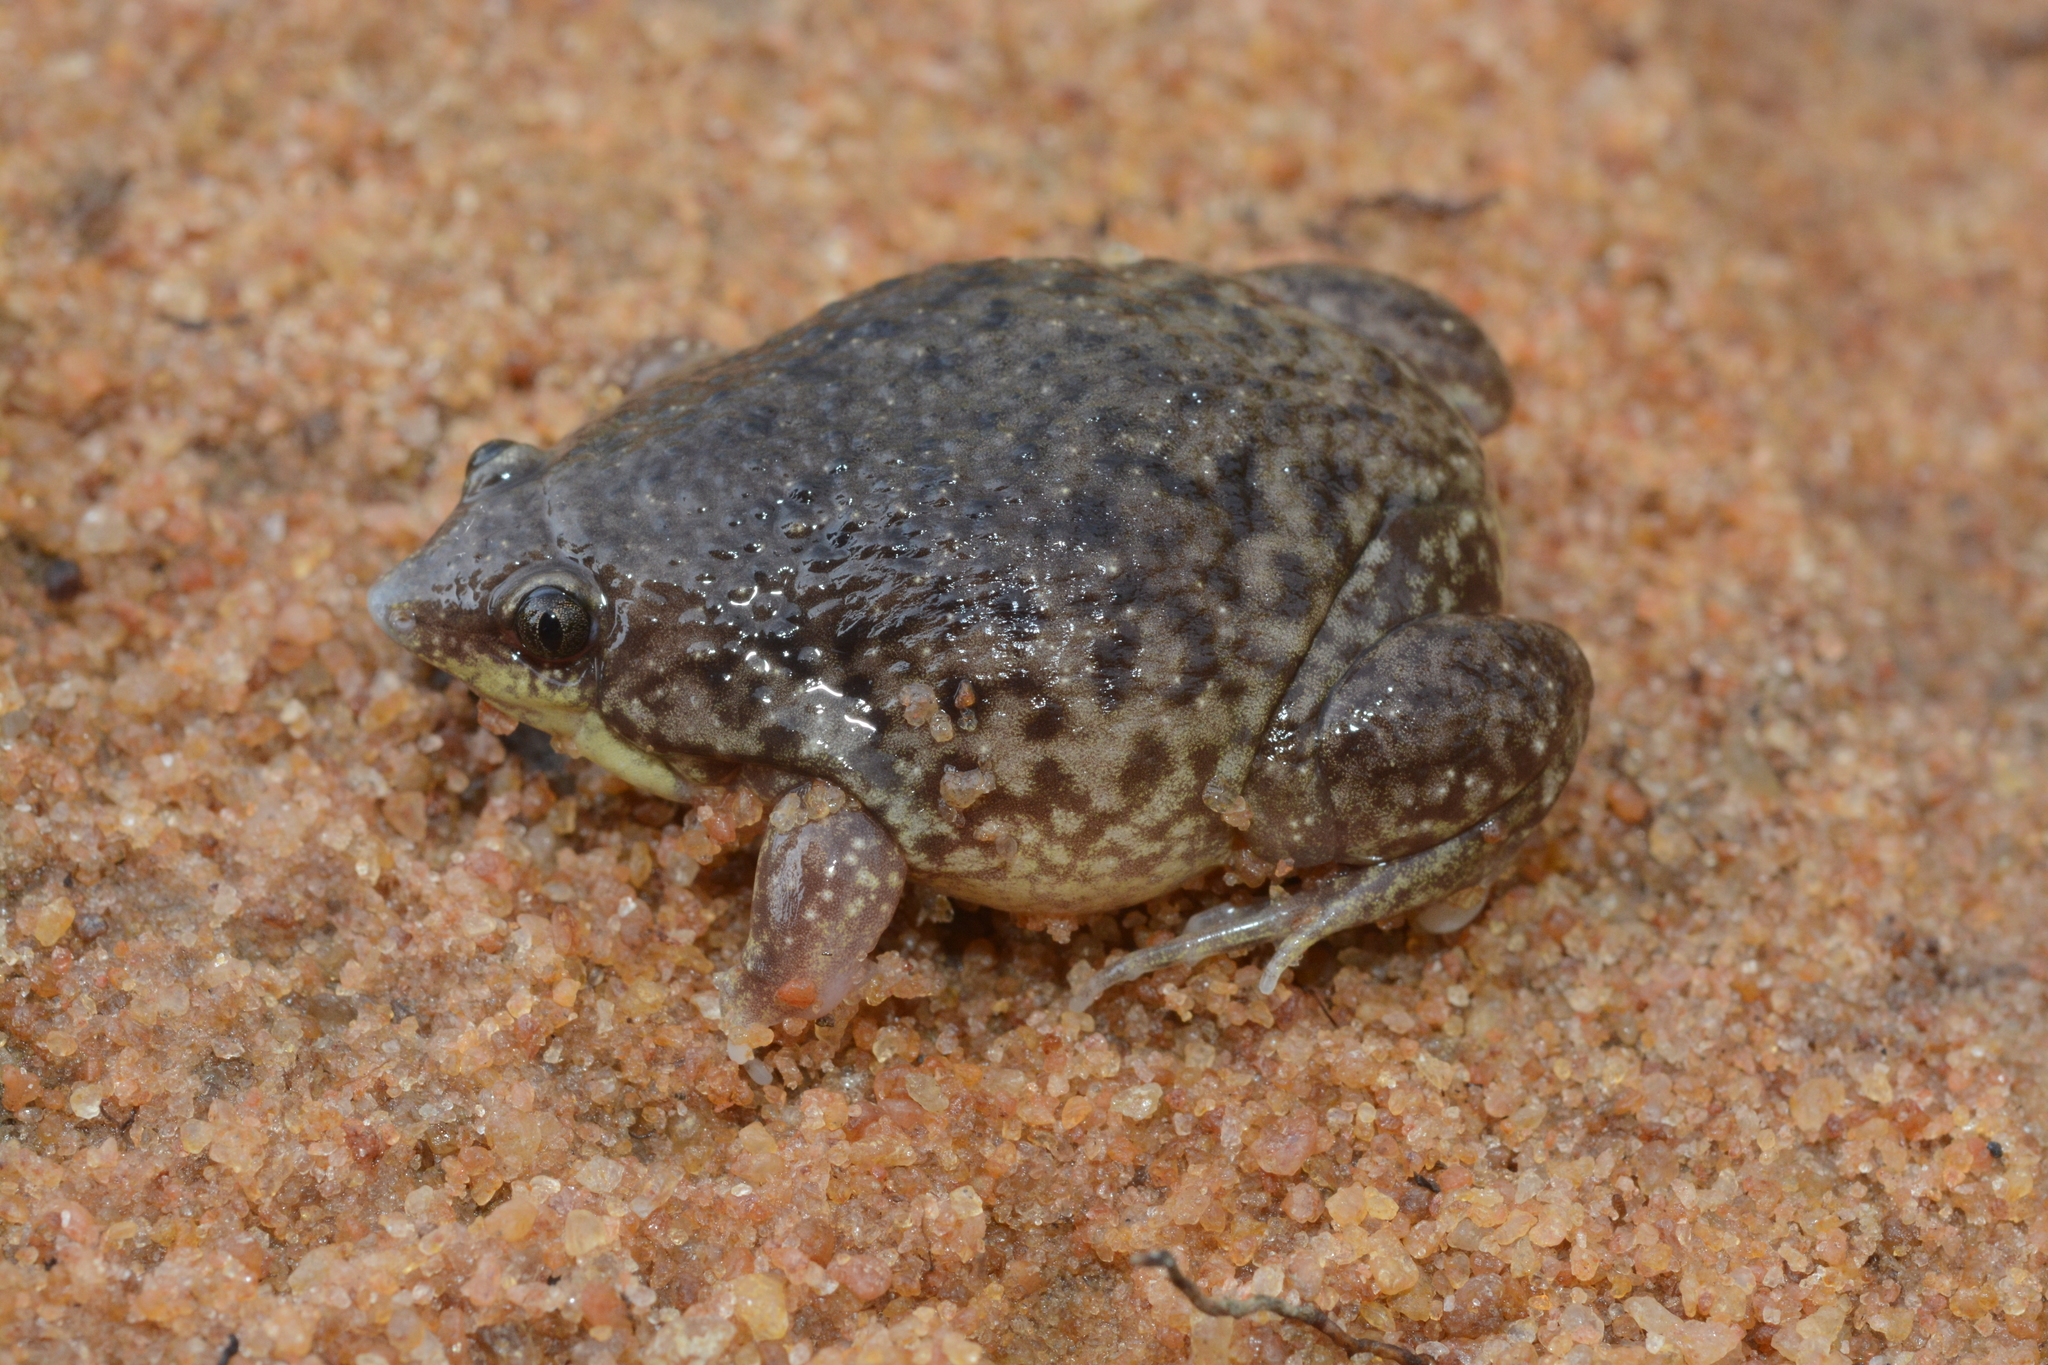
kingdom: Animalia
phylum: Chordata
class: Amphibia
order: Anura
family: Hemisotidae
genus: Hemisus
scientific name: Hemisus marmoratus
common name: Mottled shovel-nosed frog
